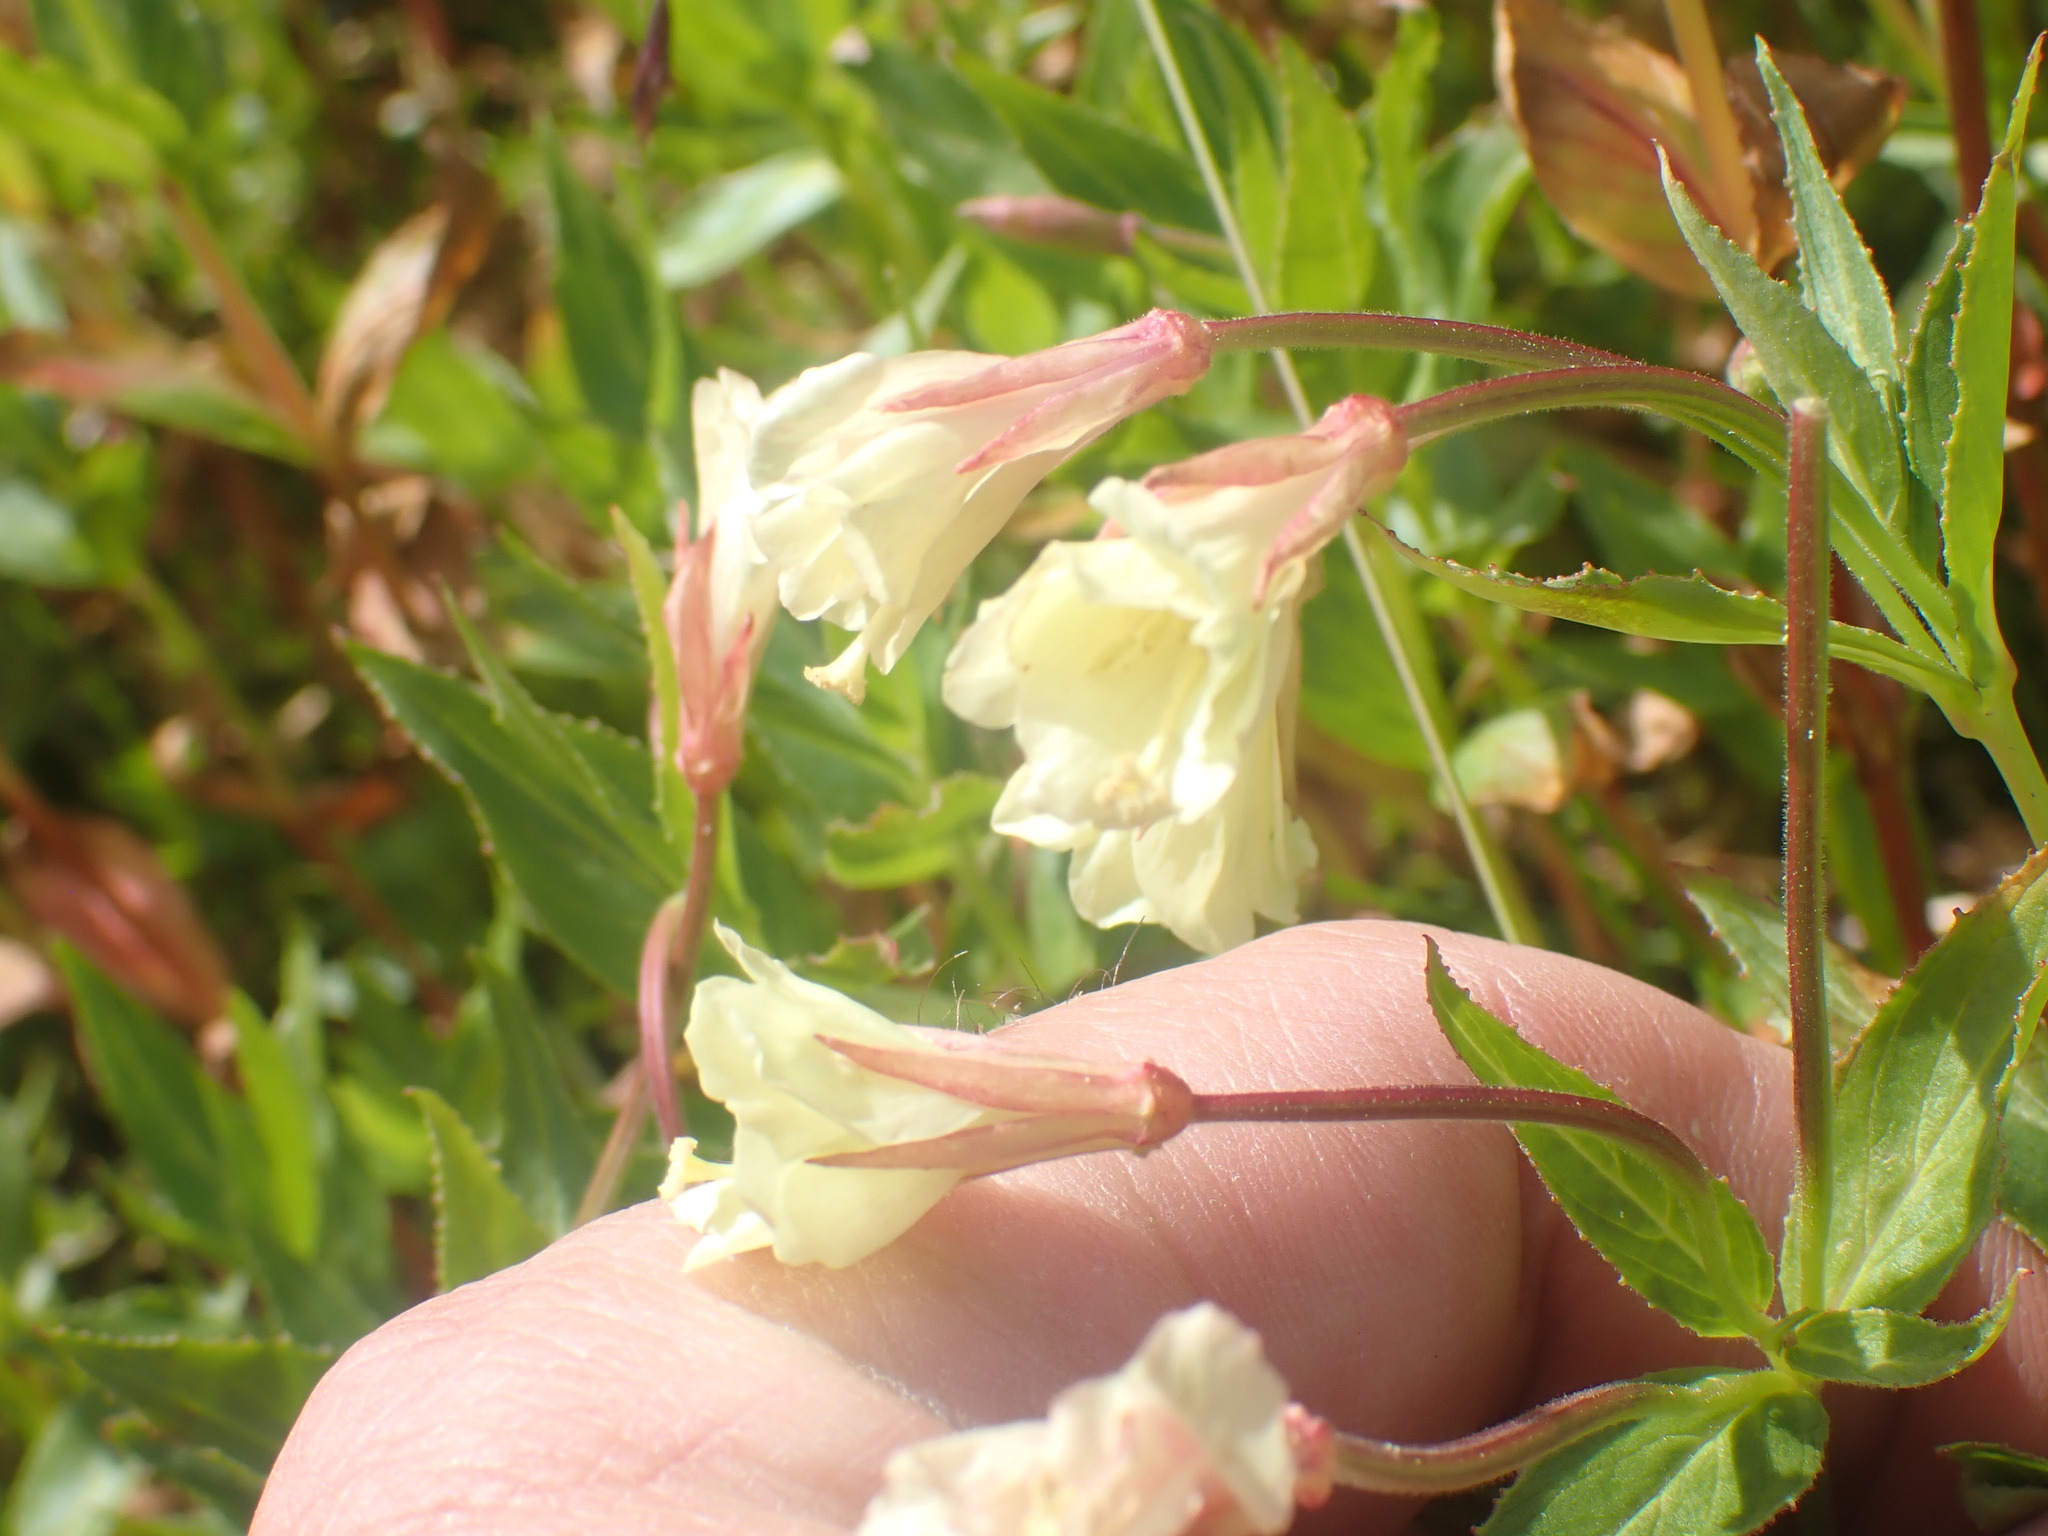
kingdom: Plantae
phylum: Tracheophyta
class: Magnoliopsida
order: Myrtales
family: Onagraceae
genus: Epilobium
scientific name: Epilobium luteum
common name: Yellow willowherb
